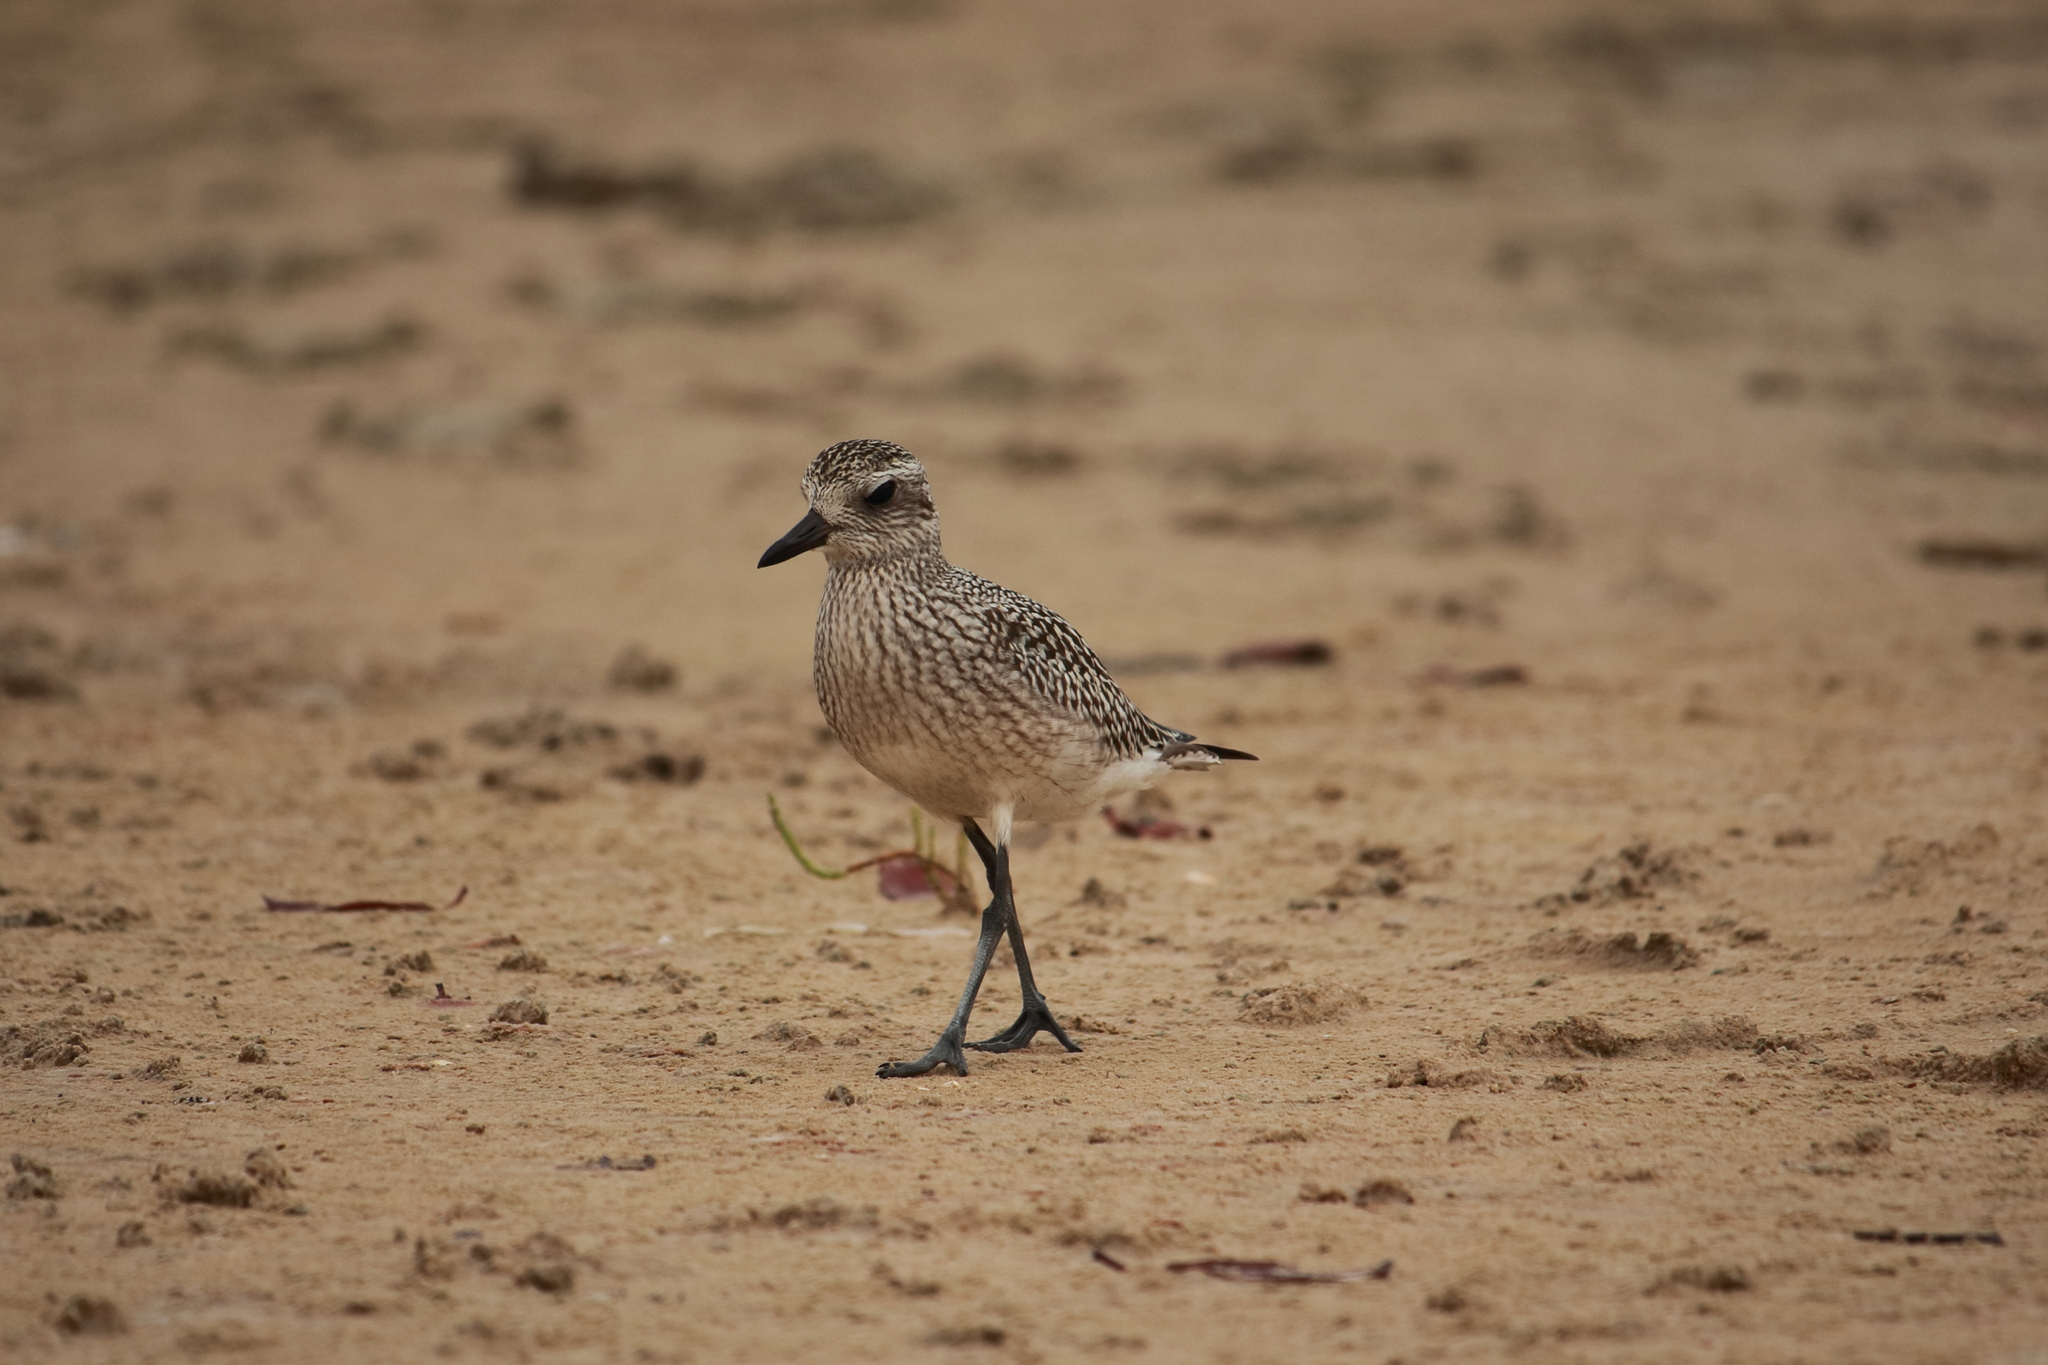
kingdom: Animalia
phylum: Chordata
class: Aves
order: Charadriiformes
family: Charadriidae
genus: Pluvialis
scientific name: Pluvialis squatarola
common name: Grey plover
